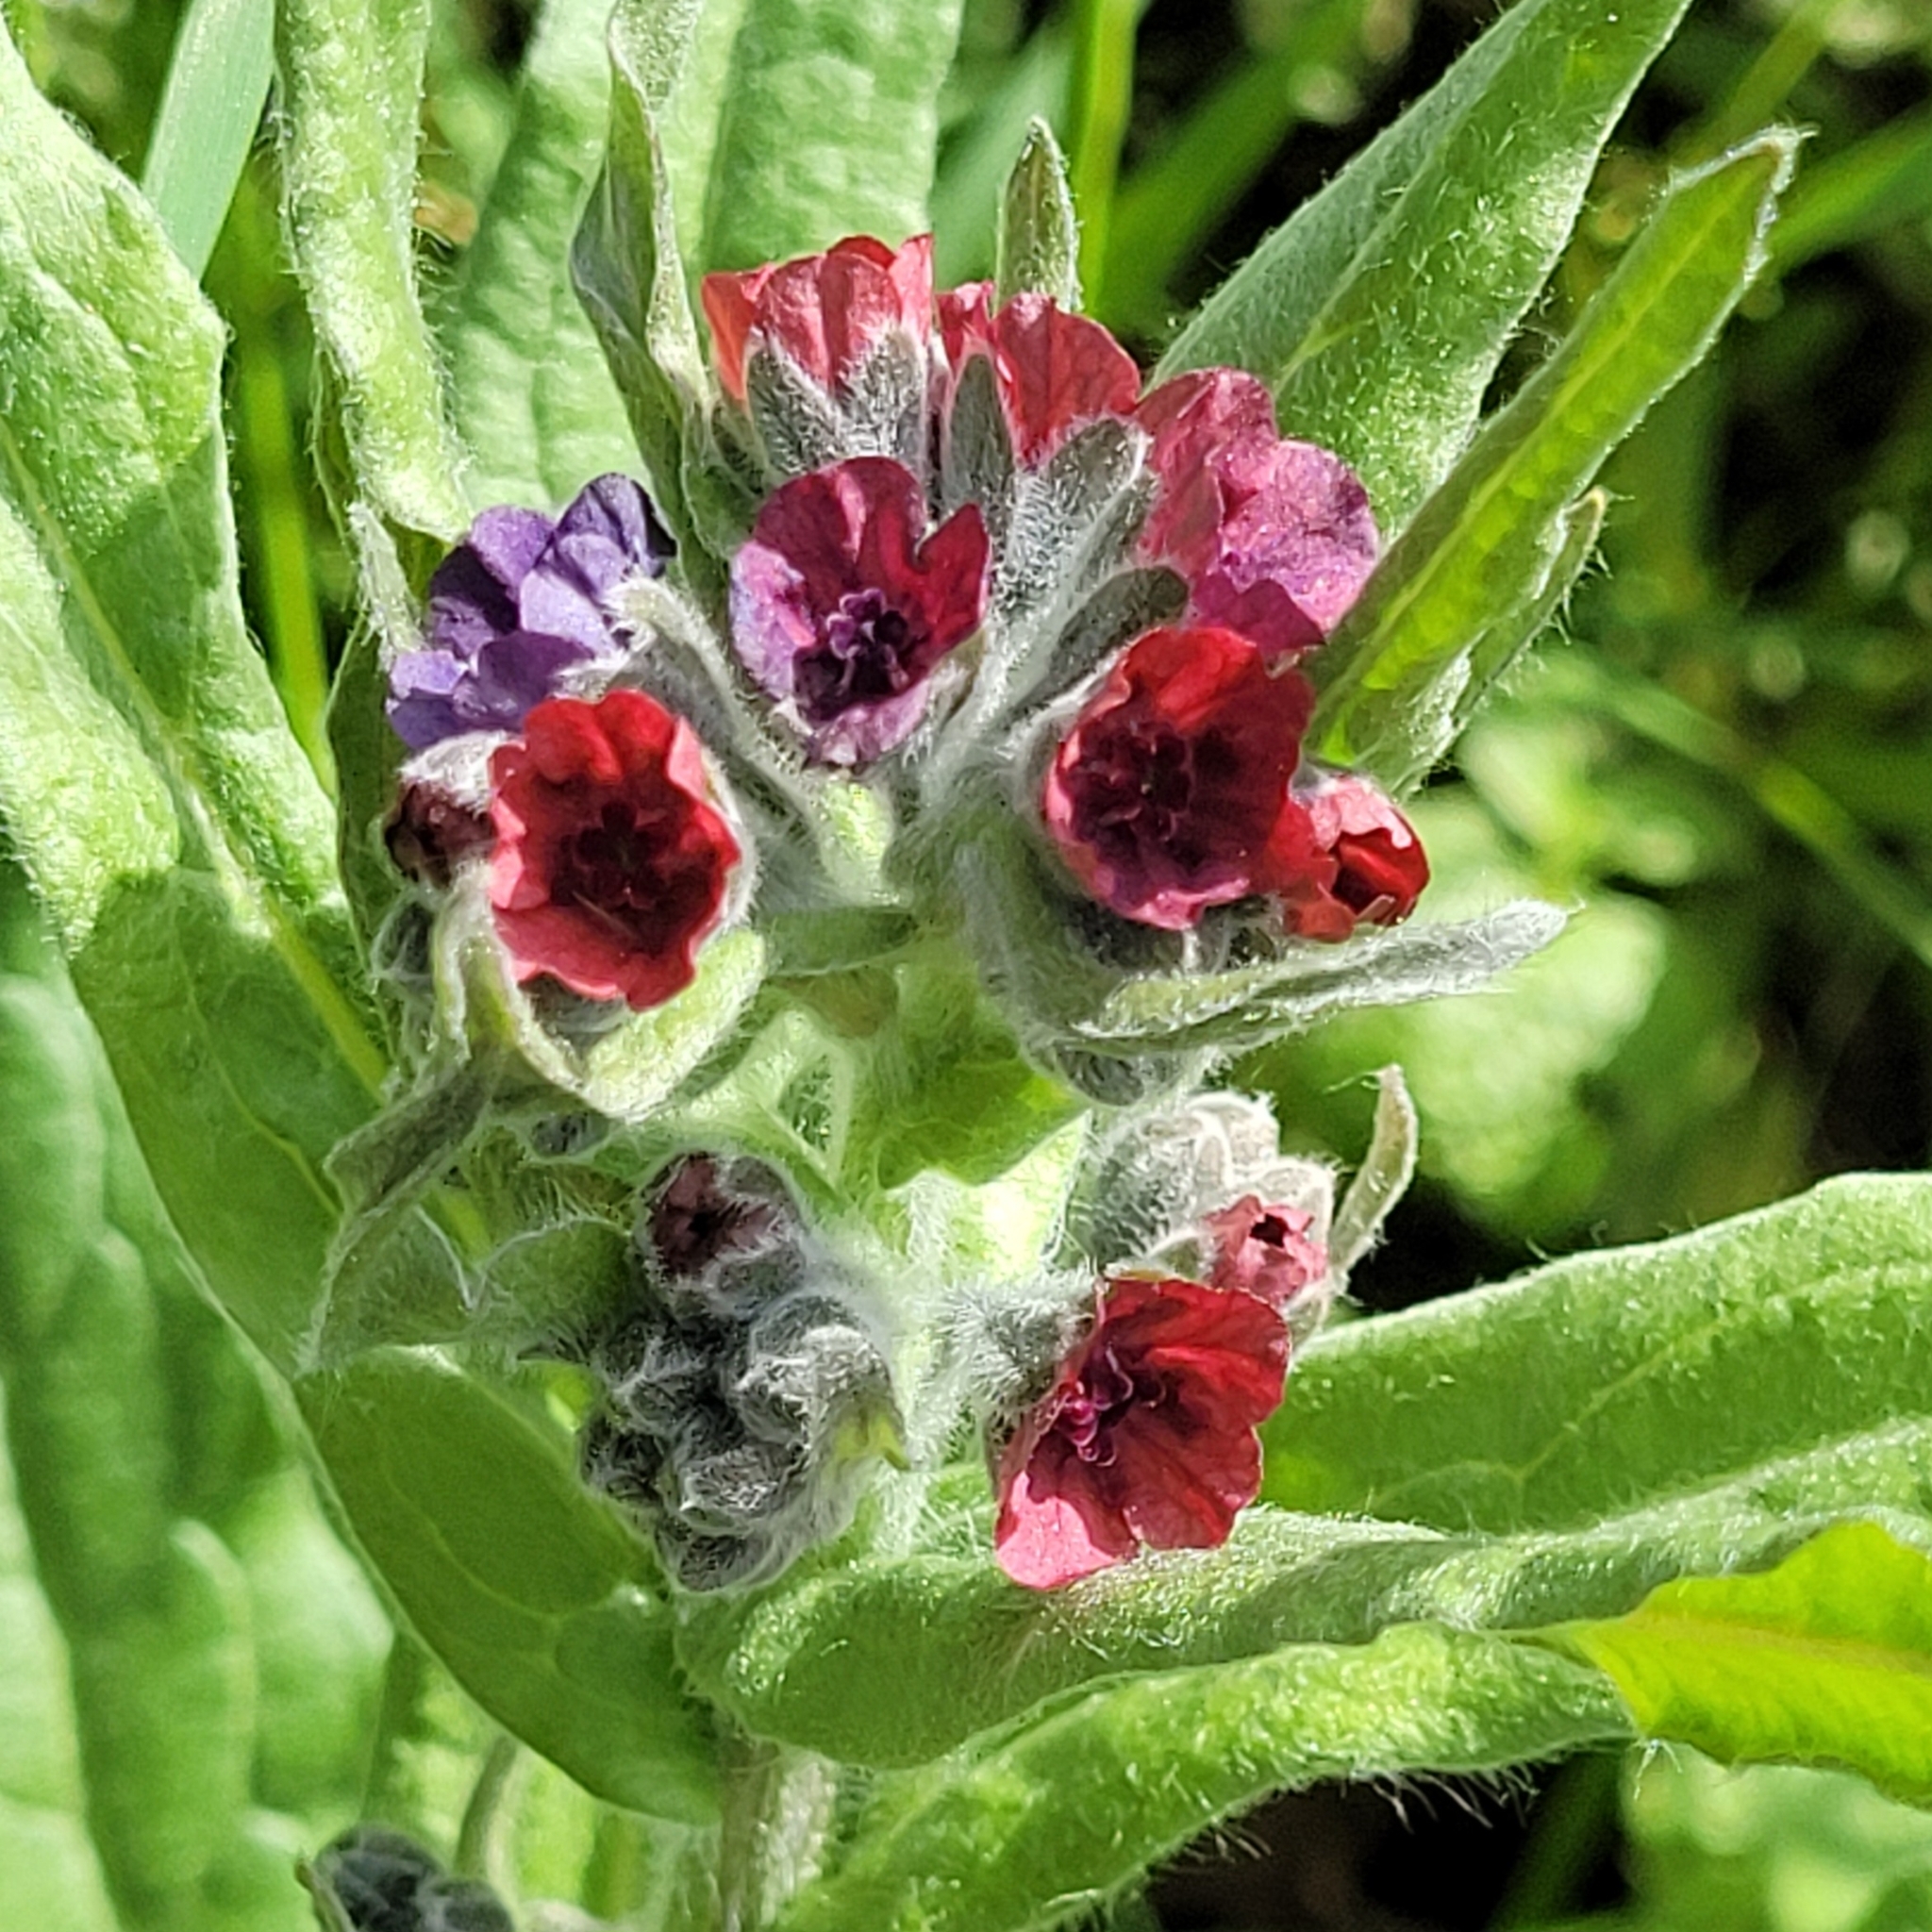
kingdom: Plantae
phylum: Tracheophyta
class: Magnoliopsida
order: Boraginales
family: Boraginaceae
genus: Cynoglossum
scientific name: Cynoglossum officinale
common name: Hound's-tongue
